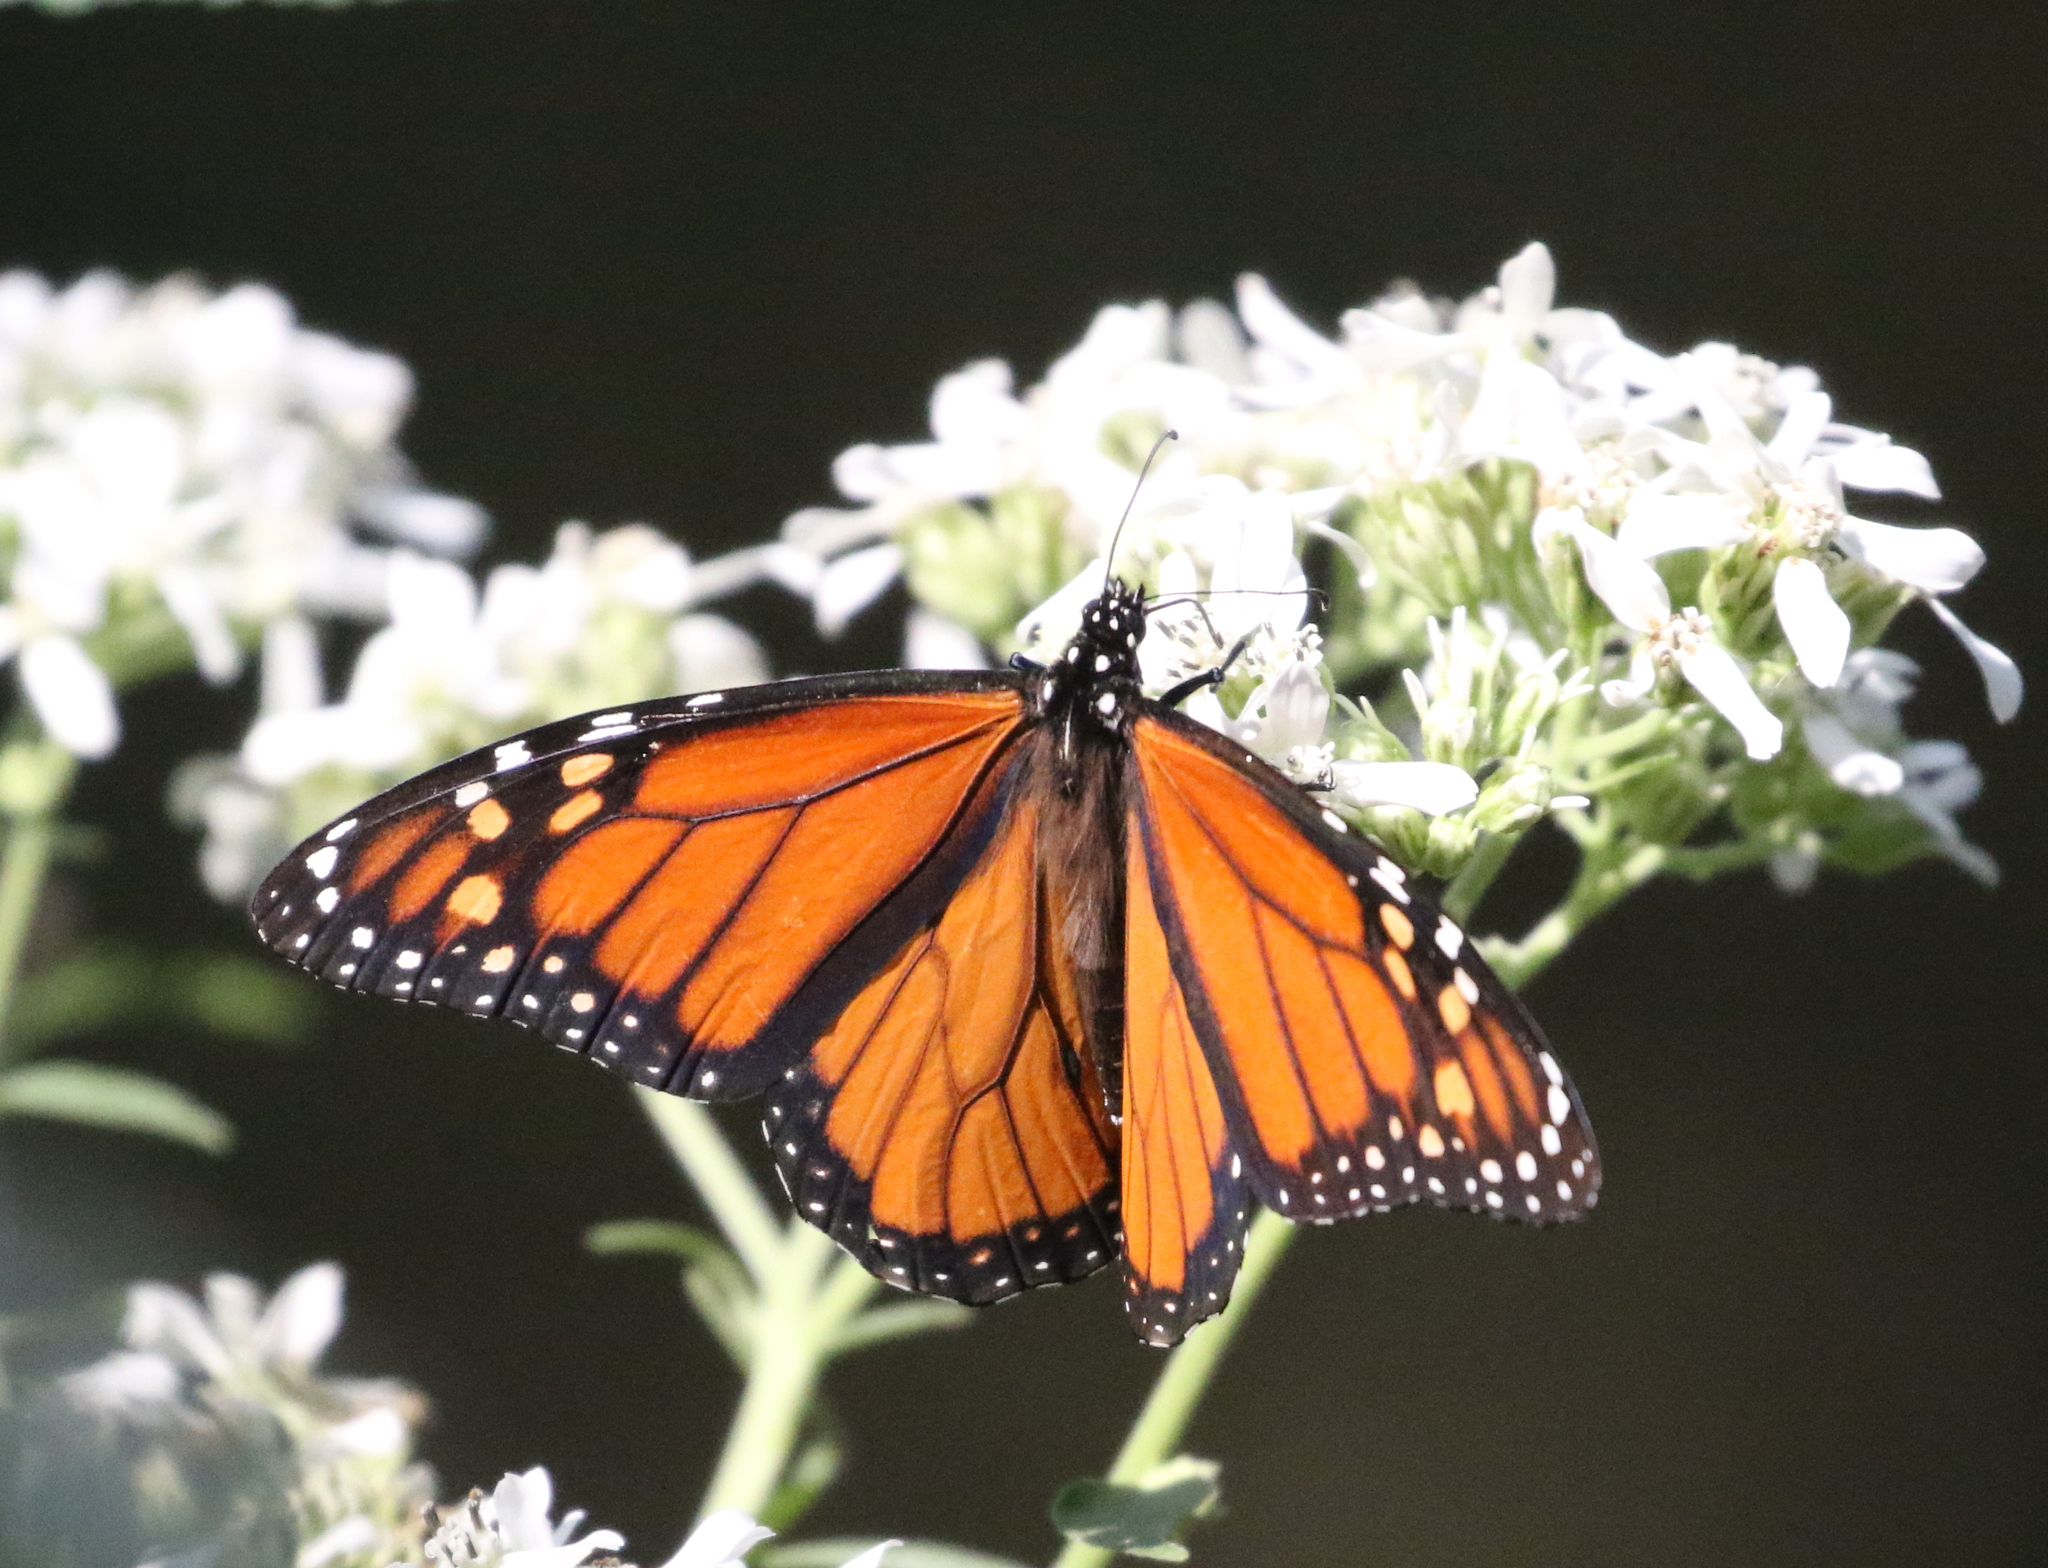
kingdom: Animalia
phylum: Arthropoda
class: Insecta
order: Lepidoptera
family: Nymphalidae
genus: Danaus
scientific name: Danaus plexippus
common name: Monarch
